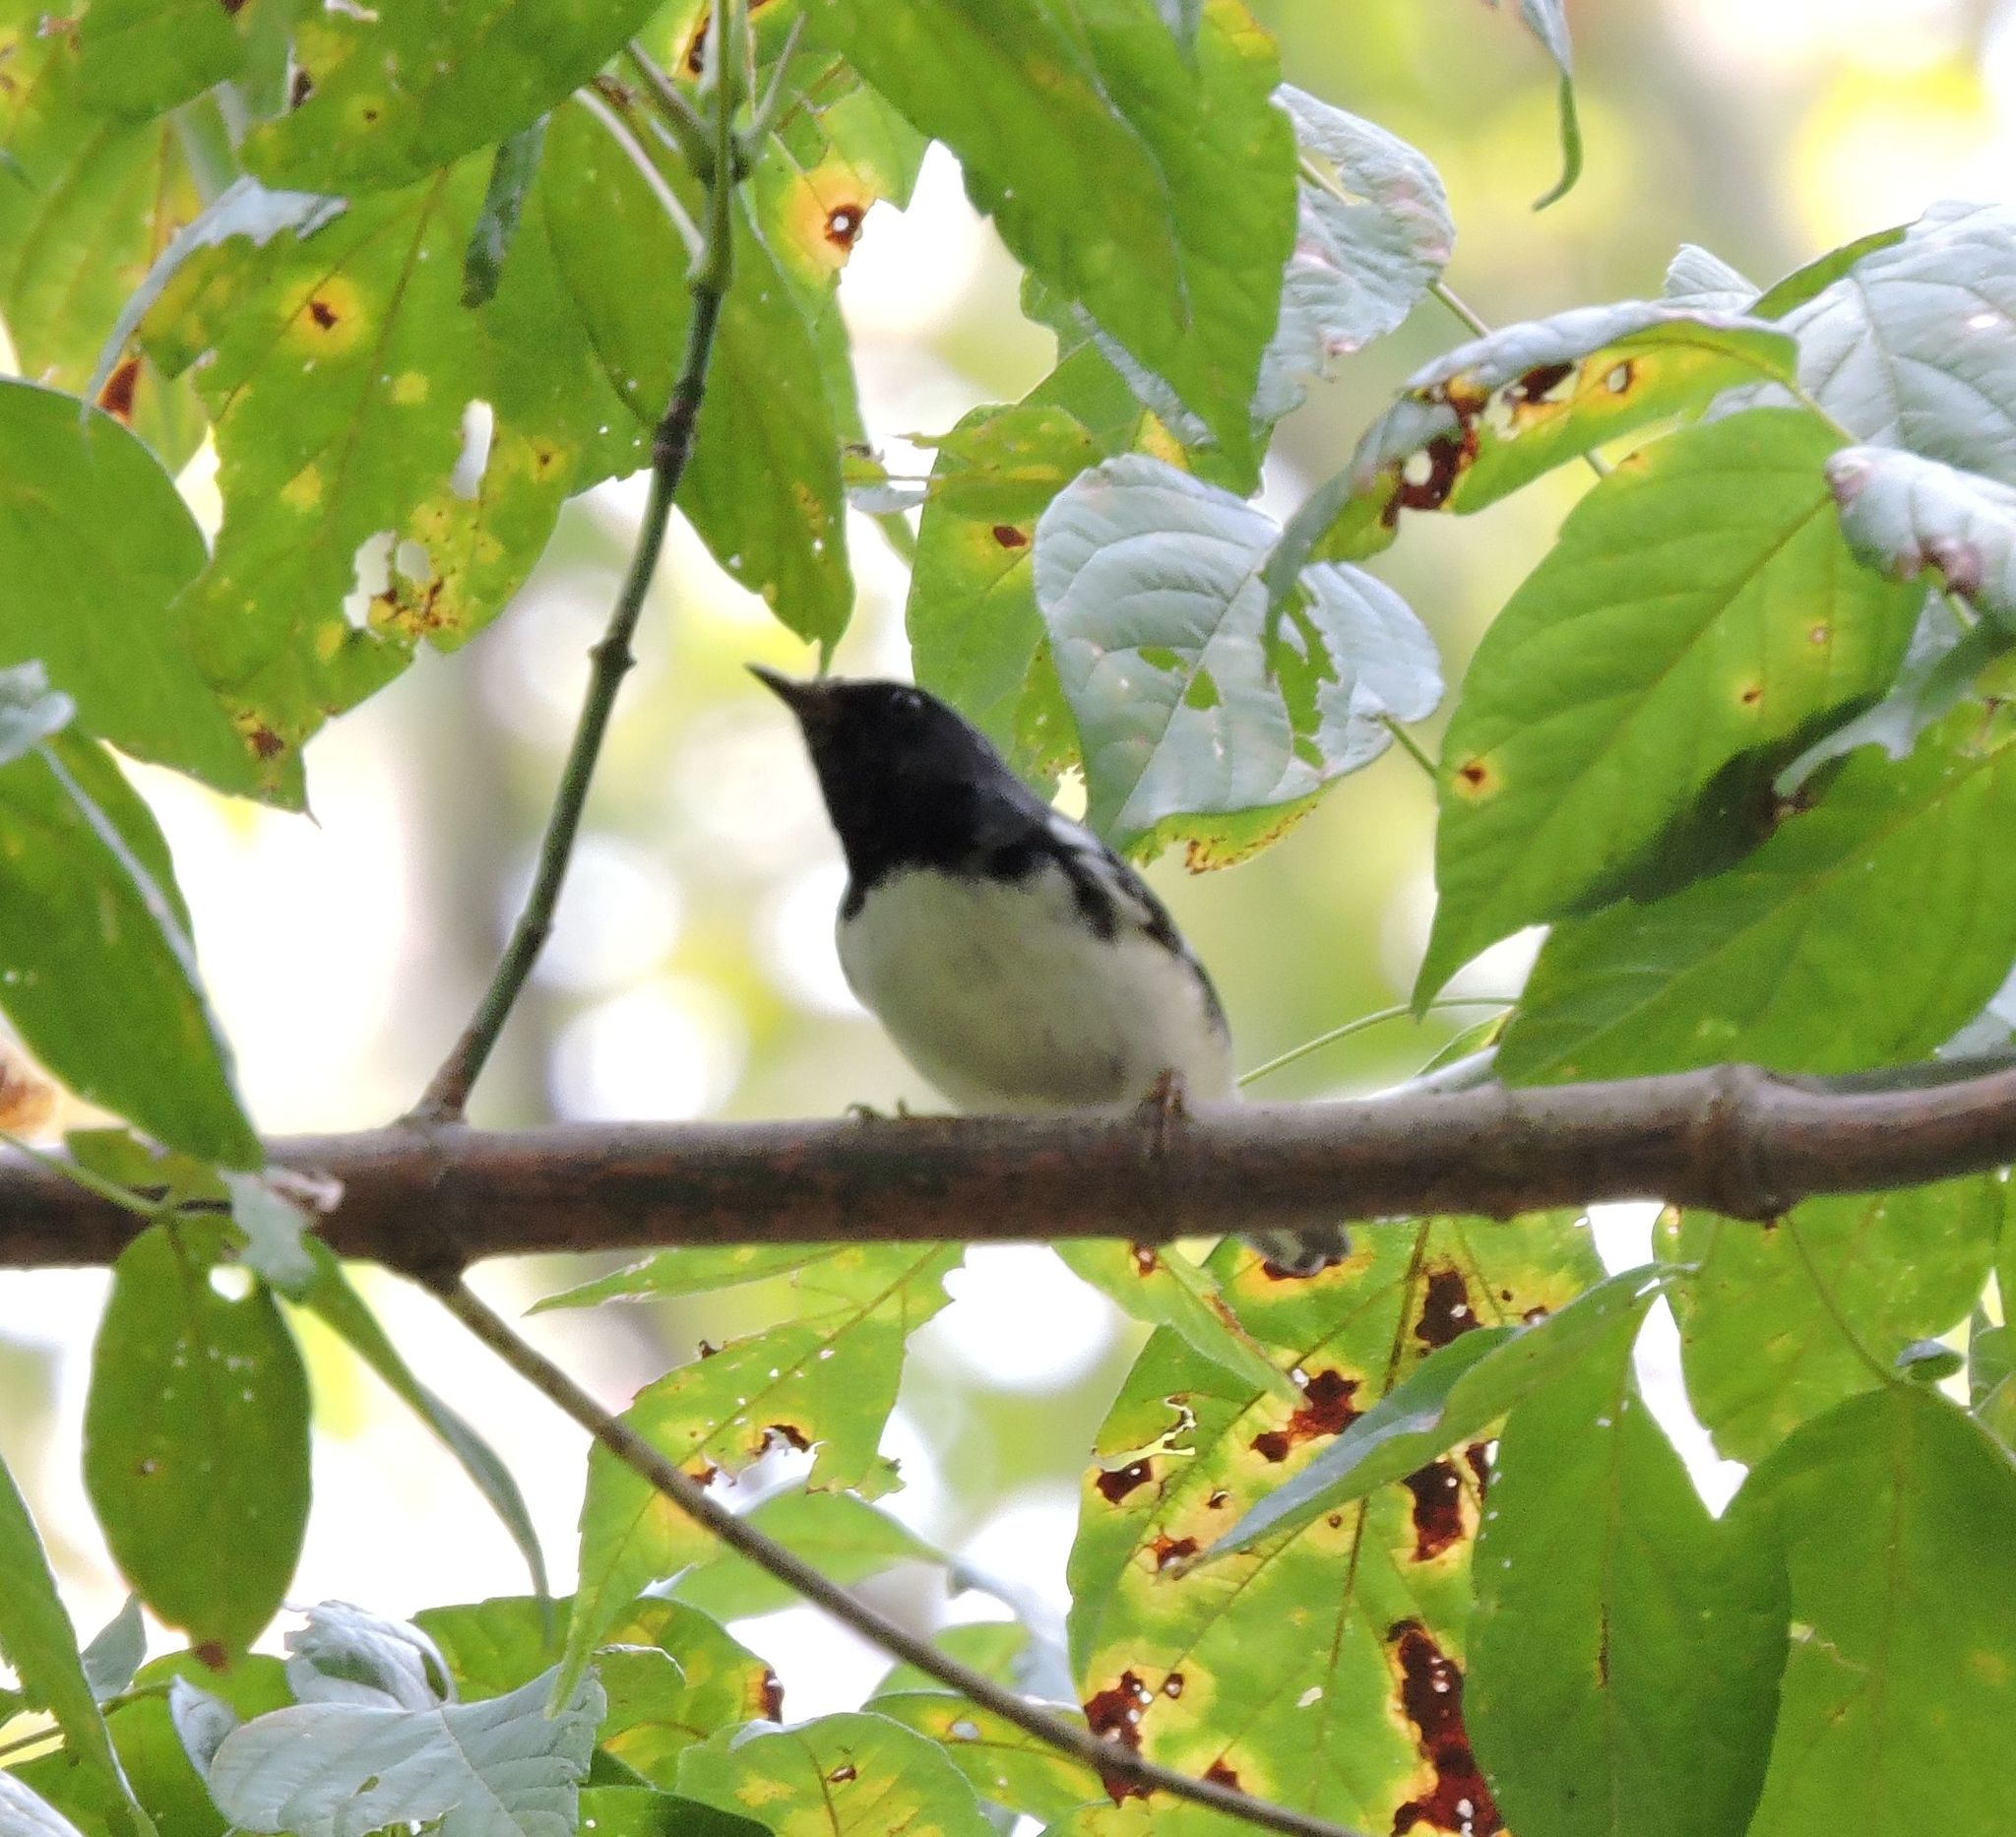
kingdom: Animalia
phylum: Chordata
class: Aves
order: Passeriformes
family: Parulidae
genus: Setophaga
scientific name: Setophaga caerulescens
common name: Black-throated blue warbler
